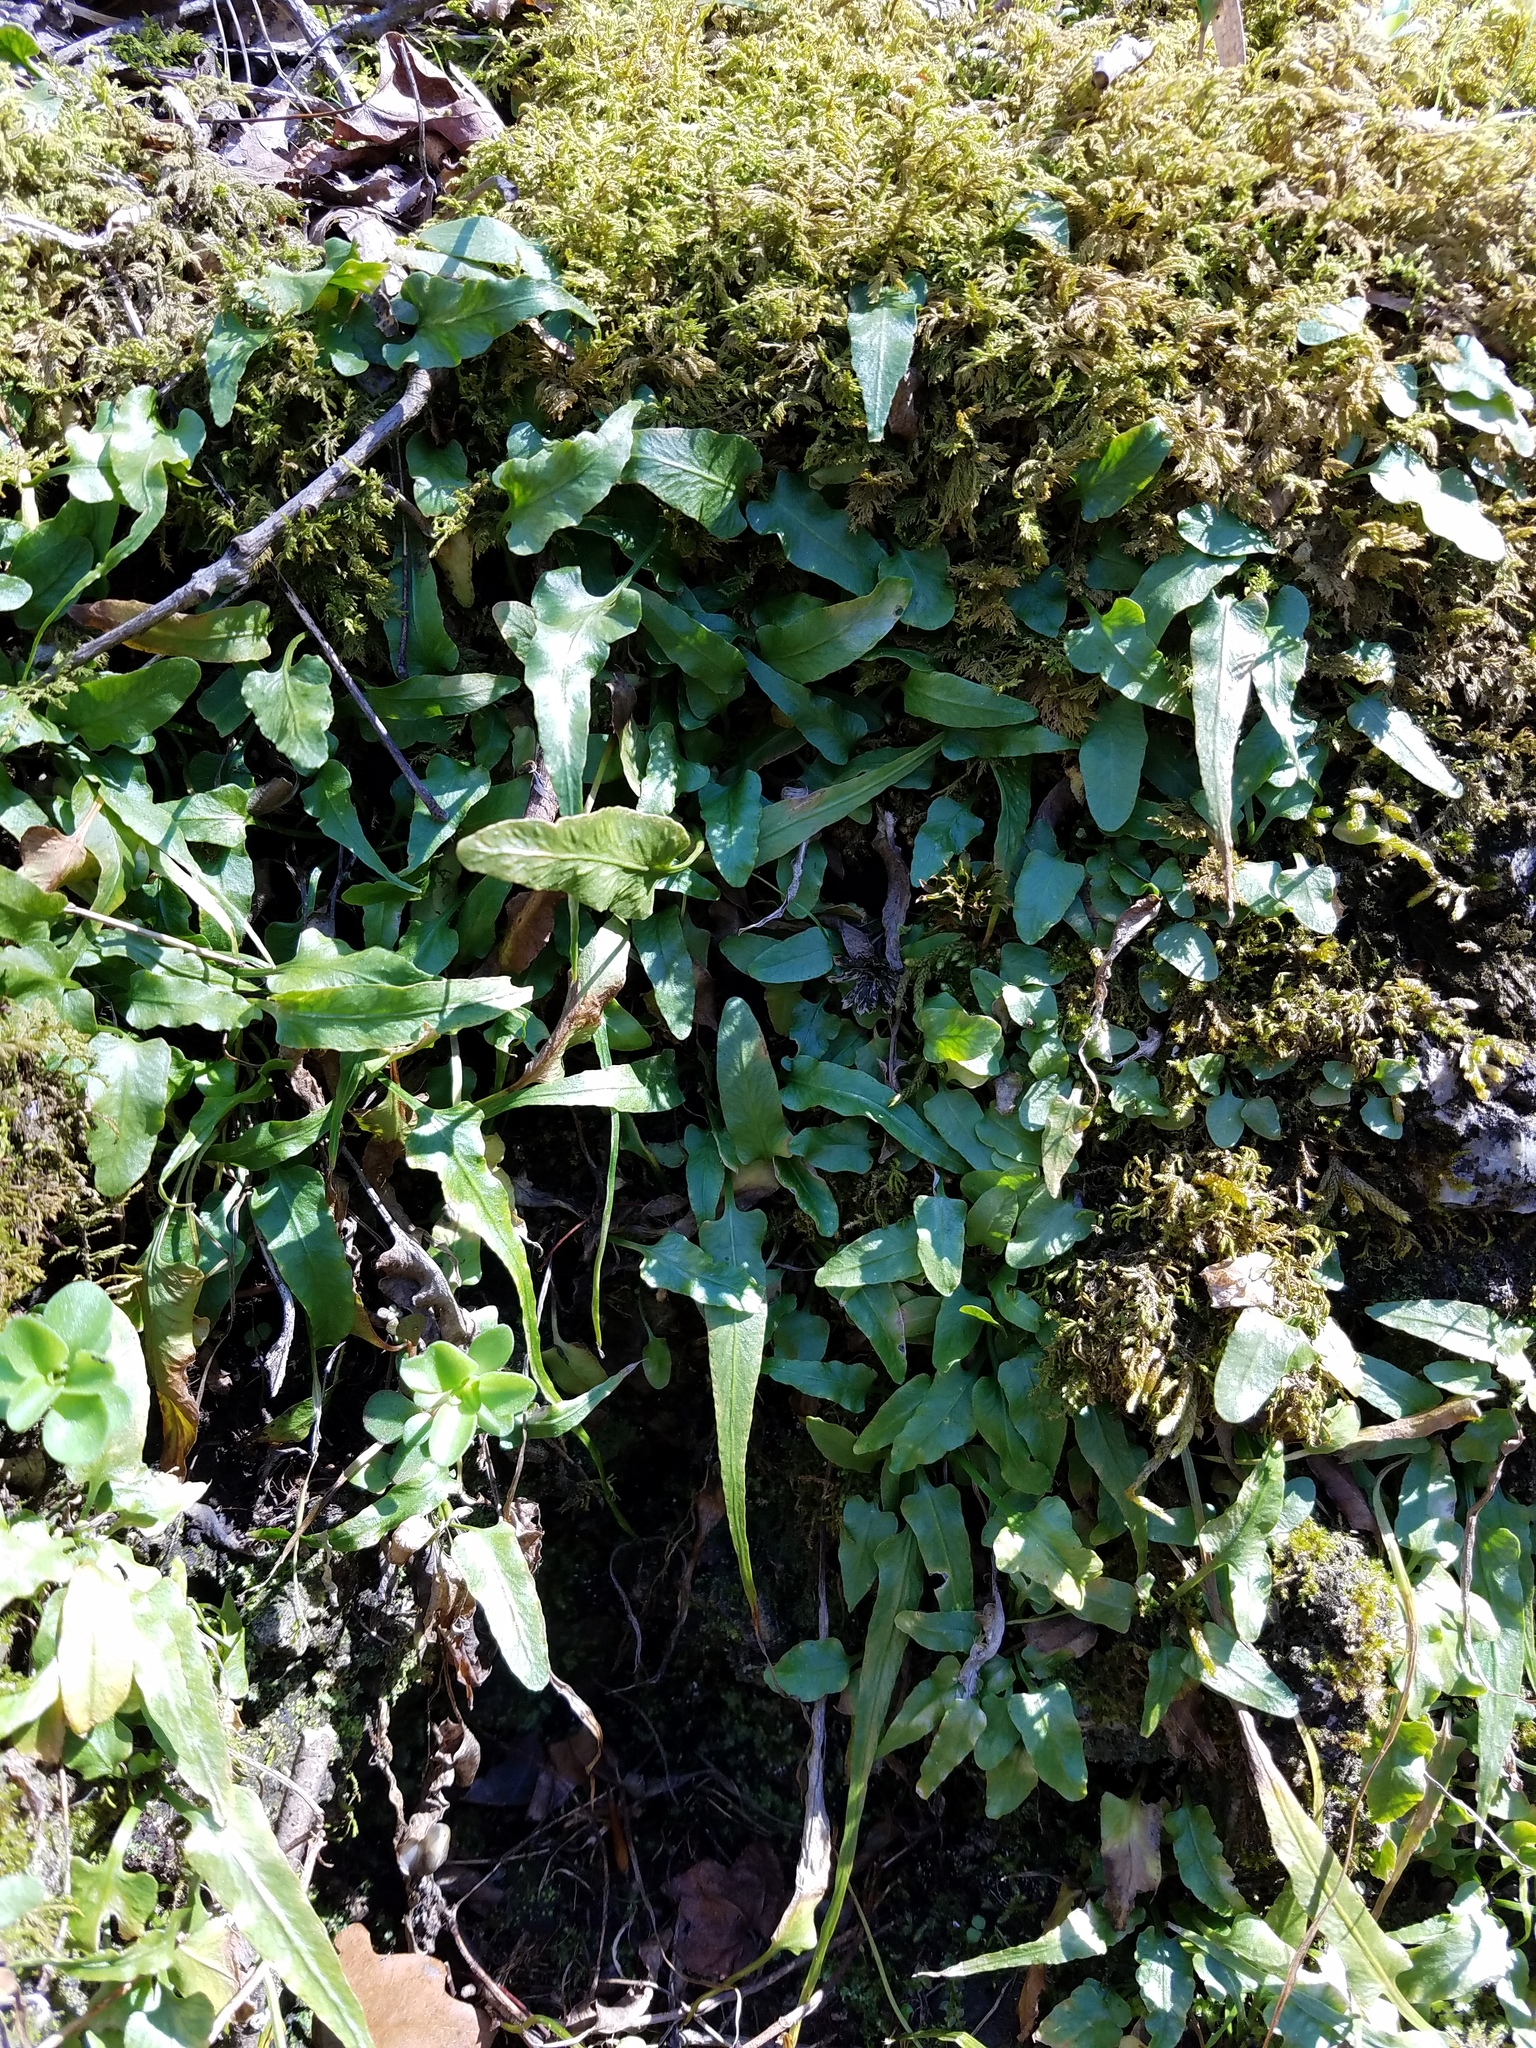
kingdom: Plantae
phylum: Tracheophyta
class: Polypodiopsida
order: Polypodiales
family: Aspleniaceae
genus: Asplenium
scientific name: Asplenium rhizophyllum
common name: Walking fern
